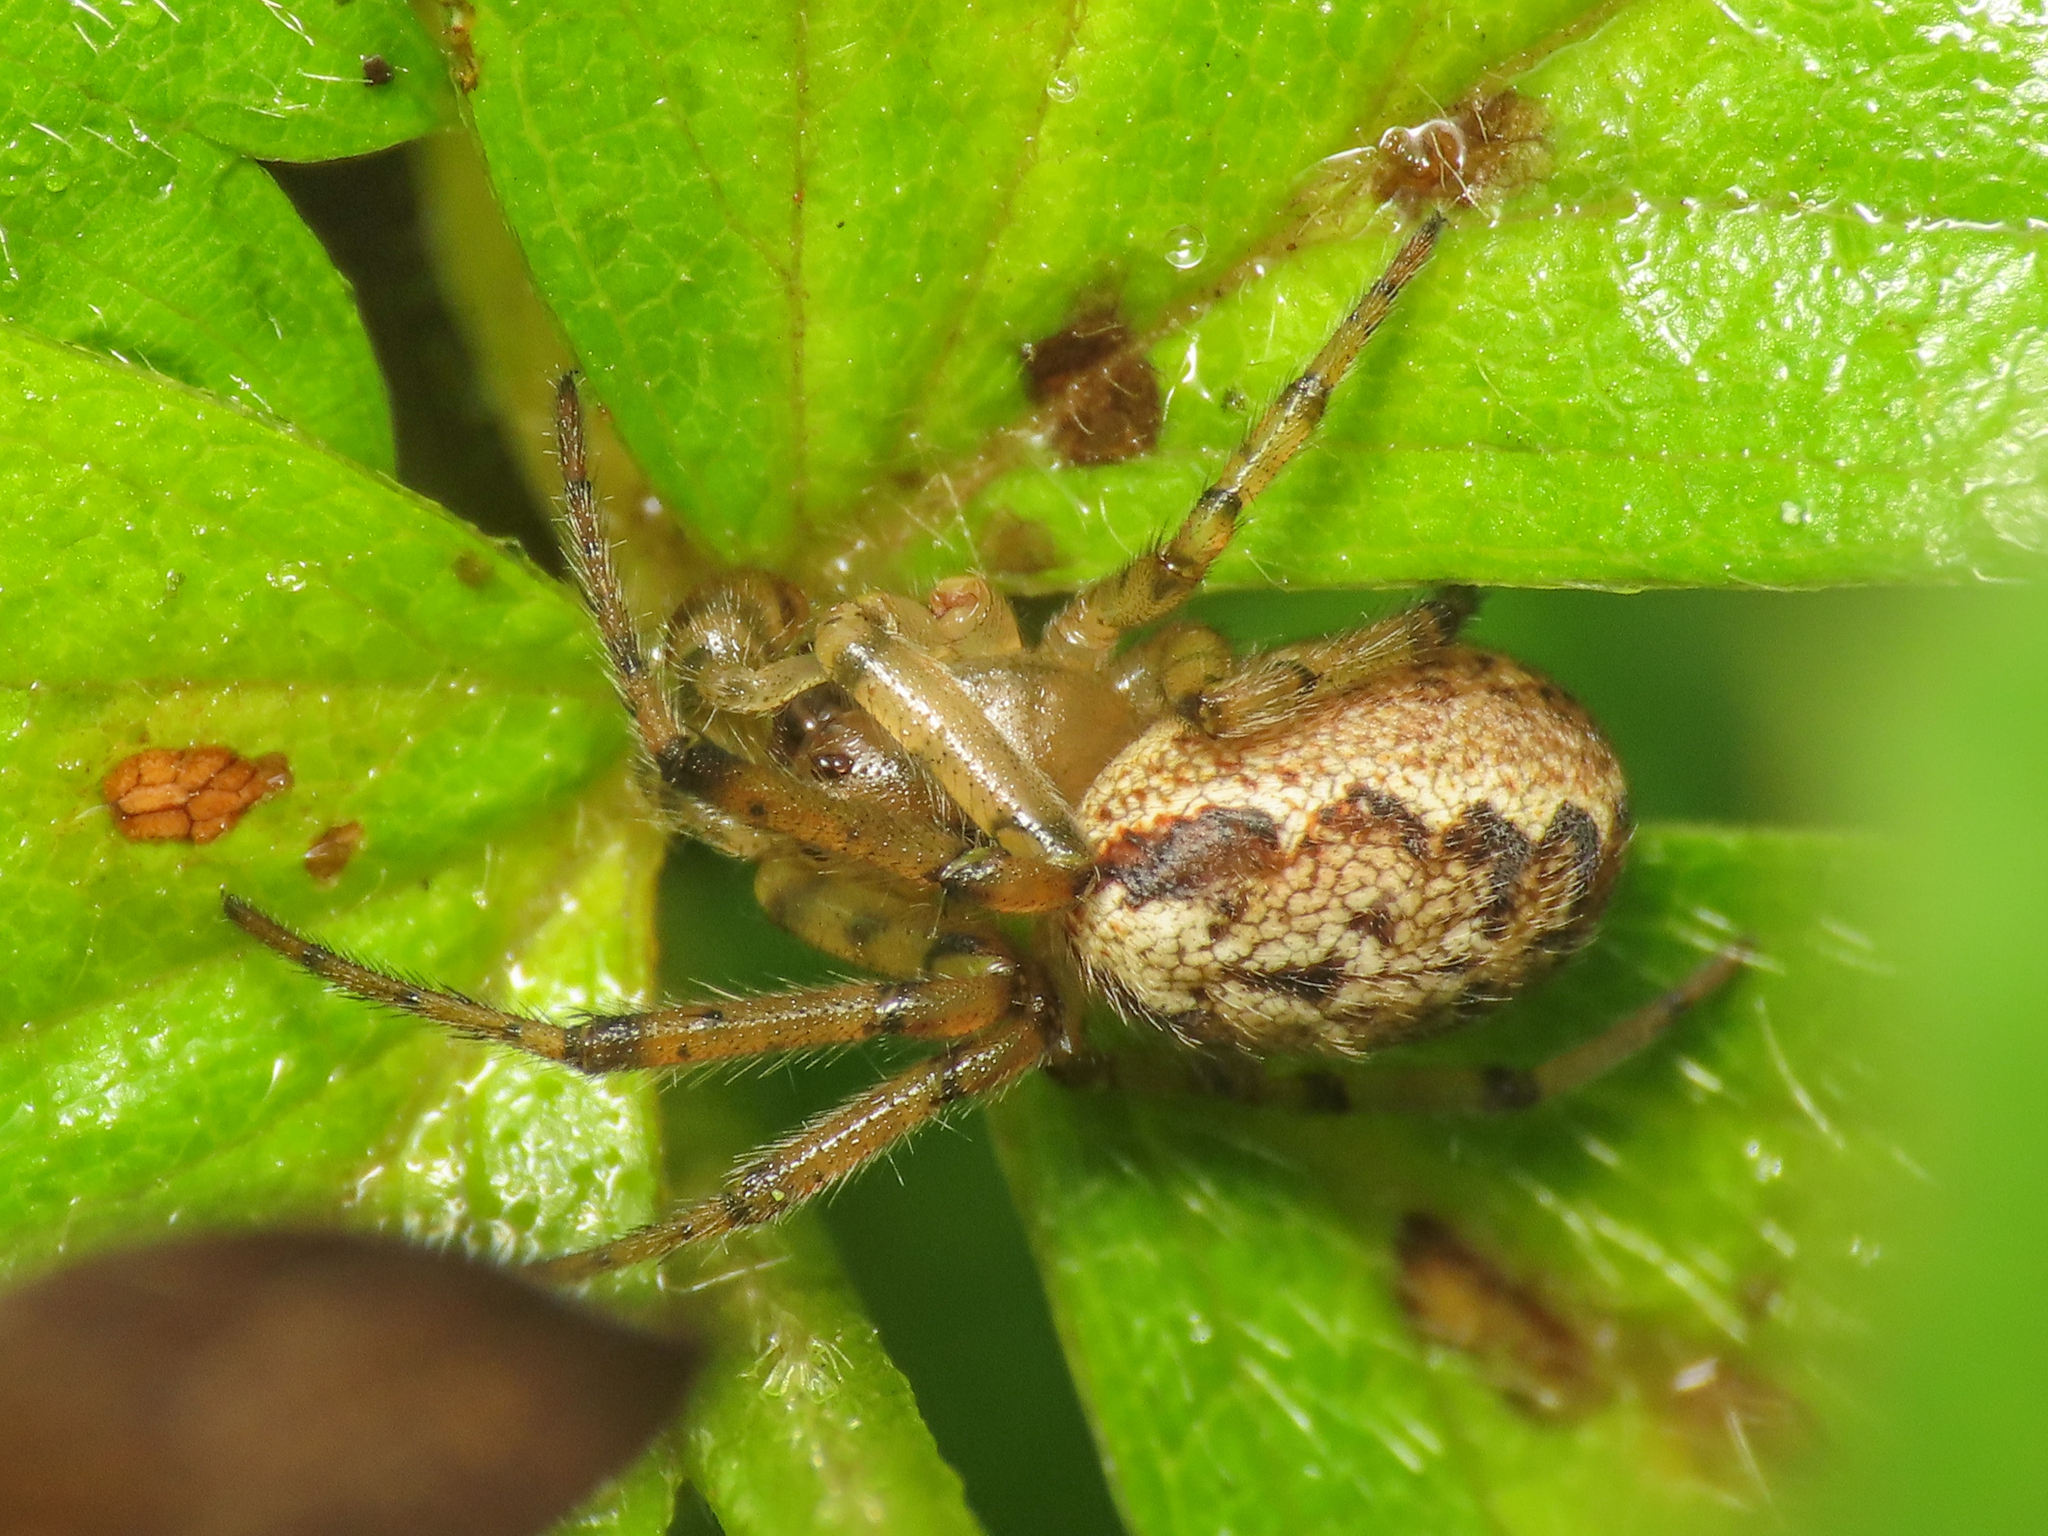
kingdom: Animalia
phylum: Arthropoda
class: Arachnida
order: Araneae
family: Araneidae
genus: Zygiella
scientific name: Zygiella montana
